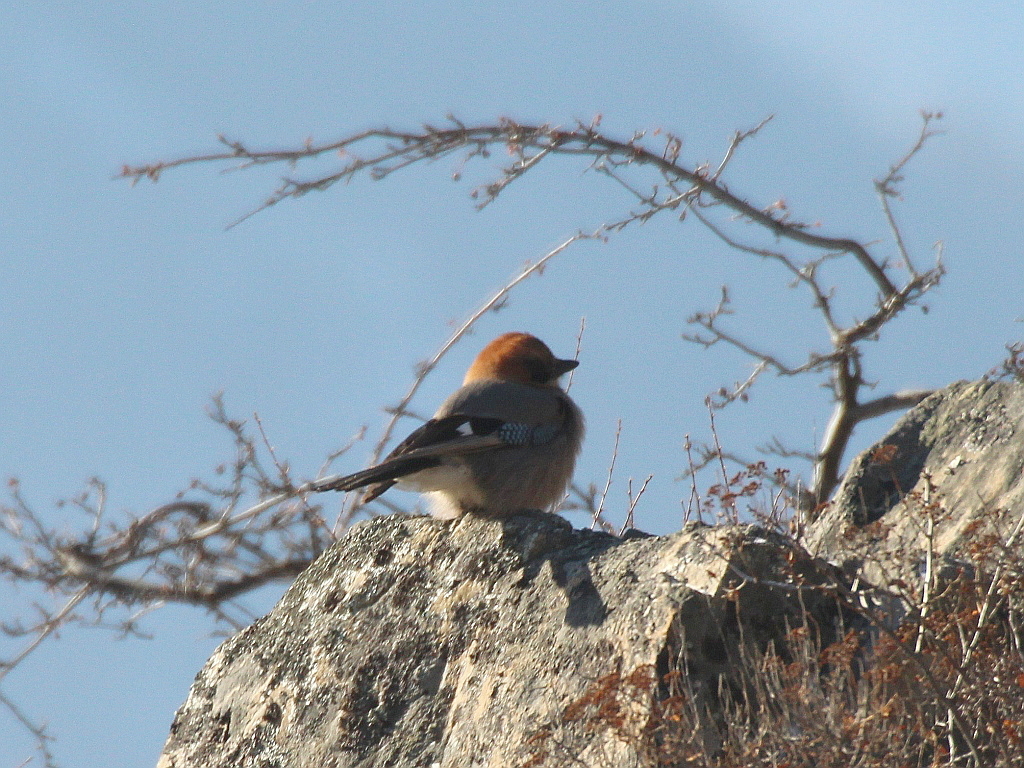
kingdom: Animalia
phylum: Chordata
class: Aves
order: Passeriformes
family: Corvidae
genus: Garrulus
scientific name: Garrulus glandarius
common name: Eurasian jay
